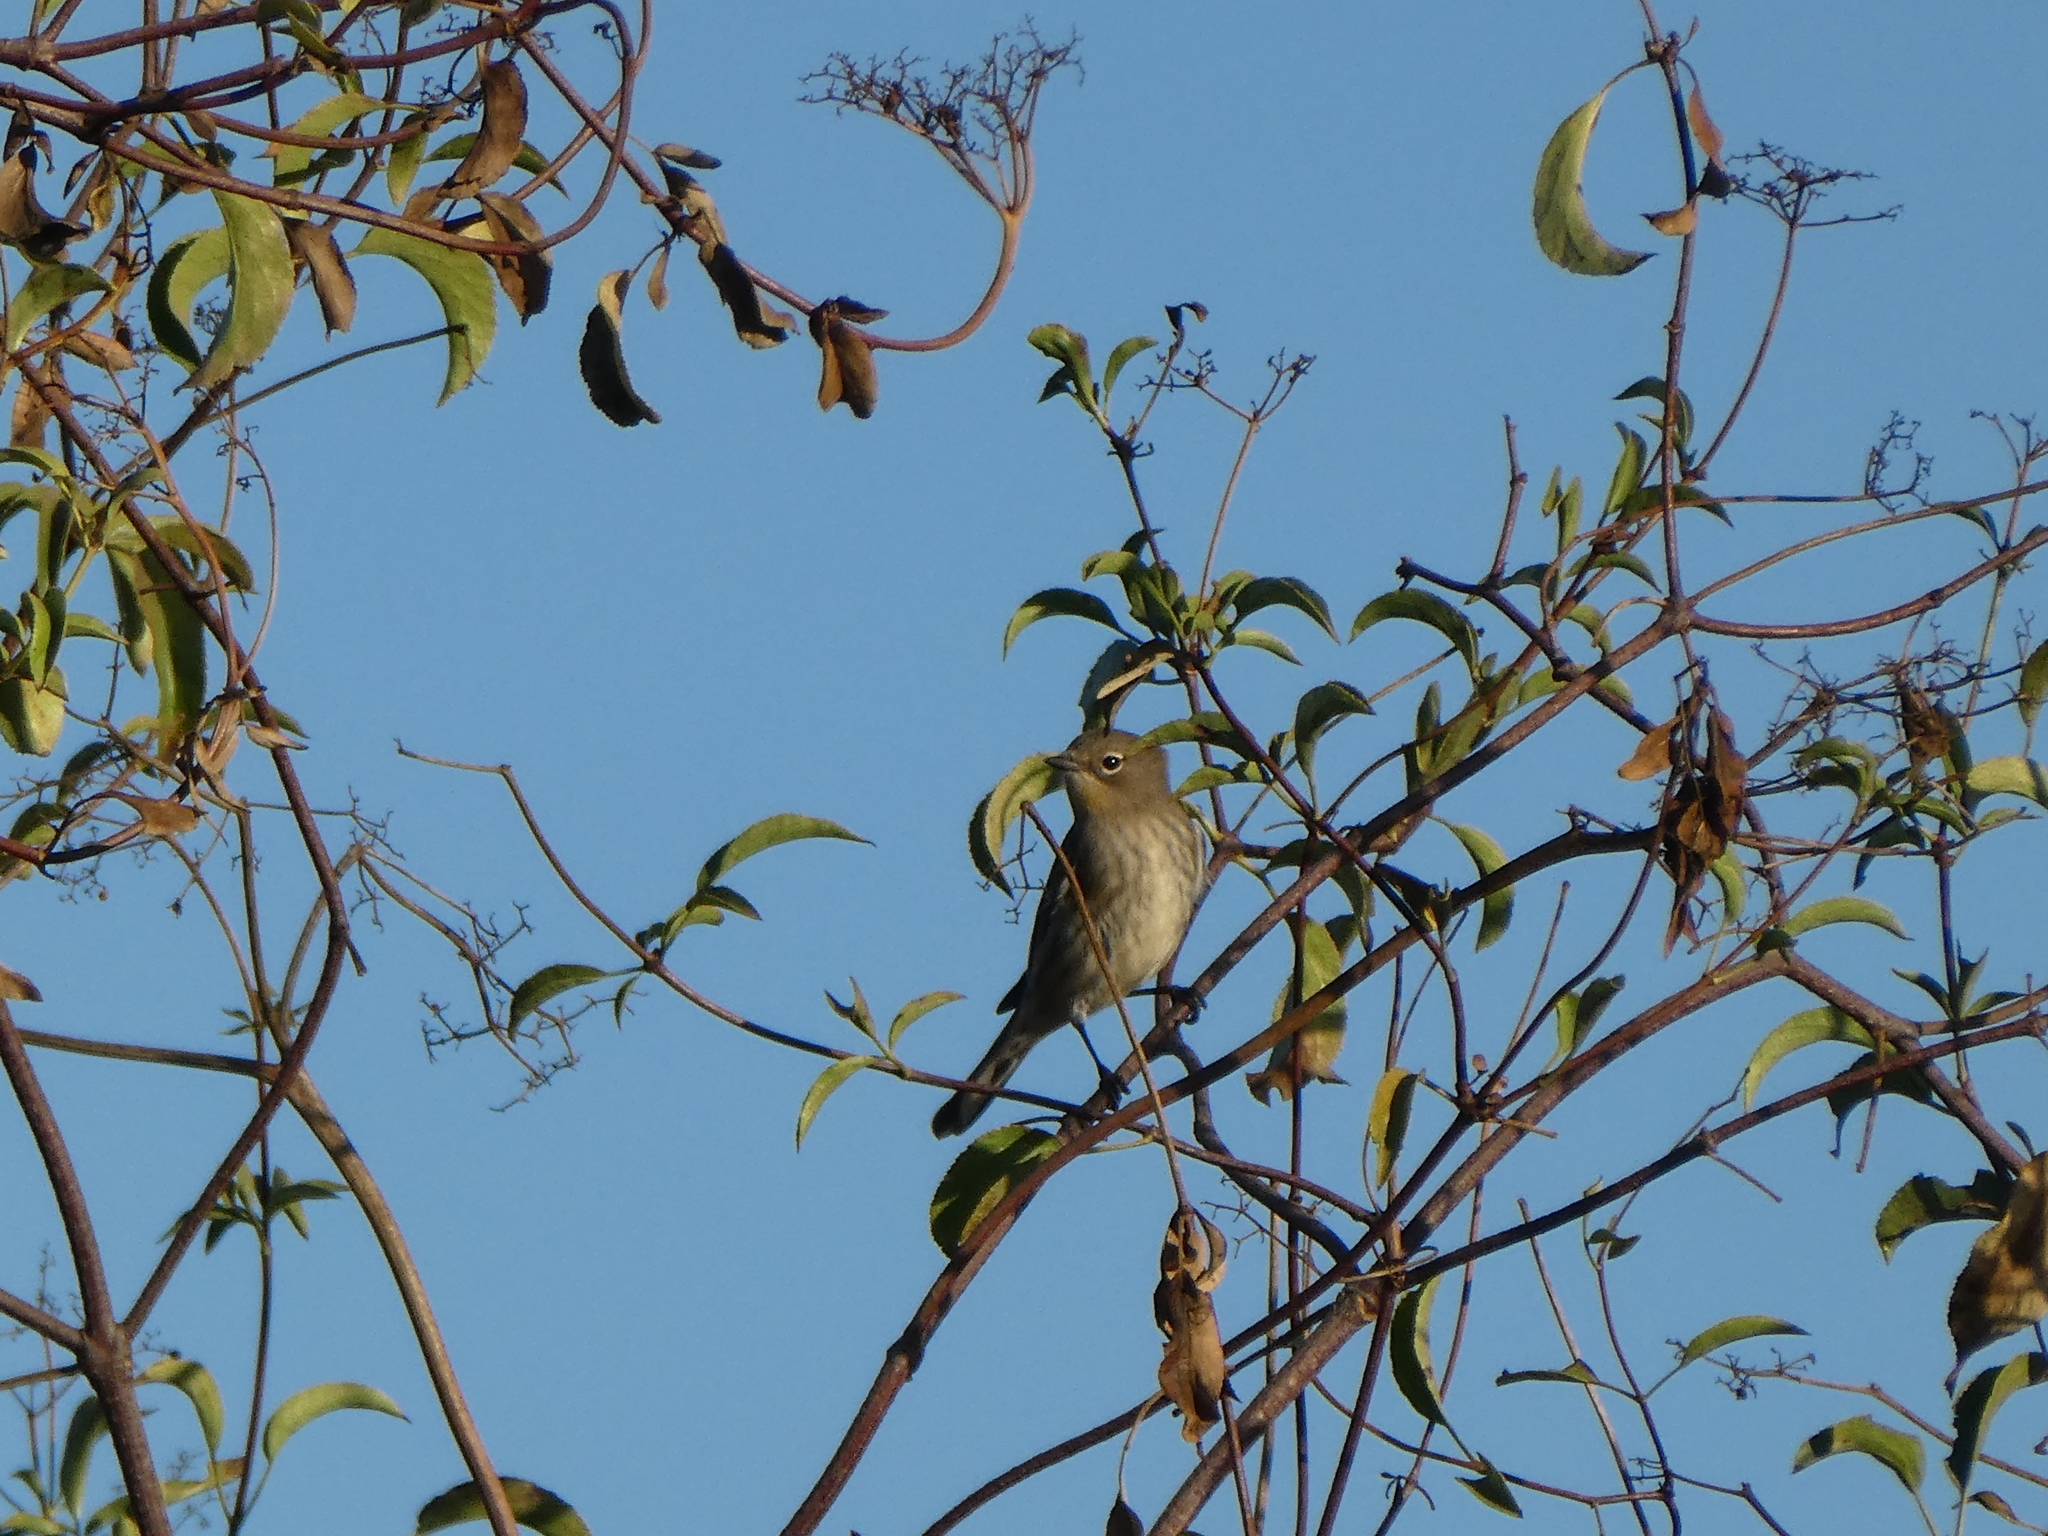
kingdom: Animalia
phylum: Chordata
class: Aves
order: Passeriformes
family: Parulidae
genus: Setophaga
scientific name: Setophaga coronata
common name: Myrtle warbler
